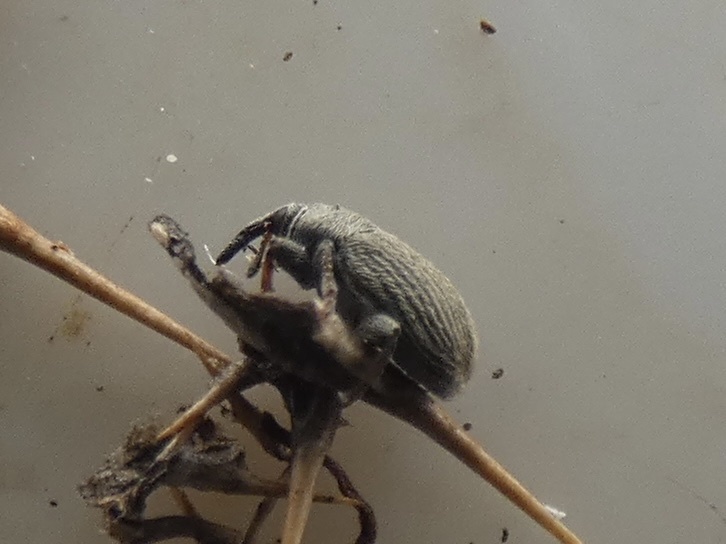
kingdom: Animalia
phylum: Arthropoda
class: Insecta
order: Coleoptera
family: Curculionidae
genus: Mecinus
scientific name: Mecinus pascuorum
